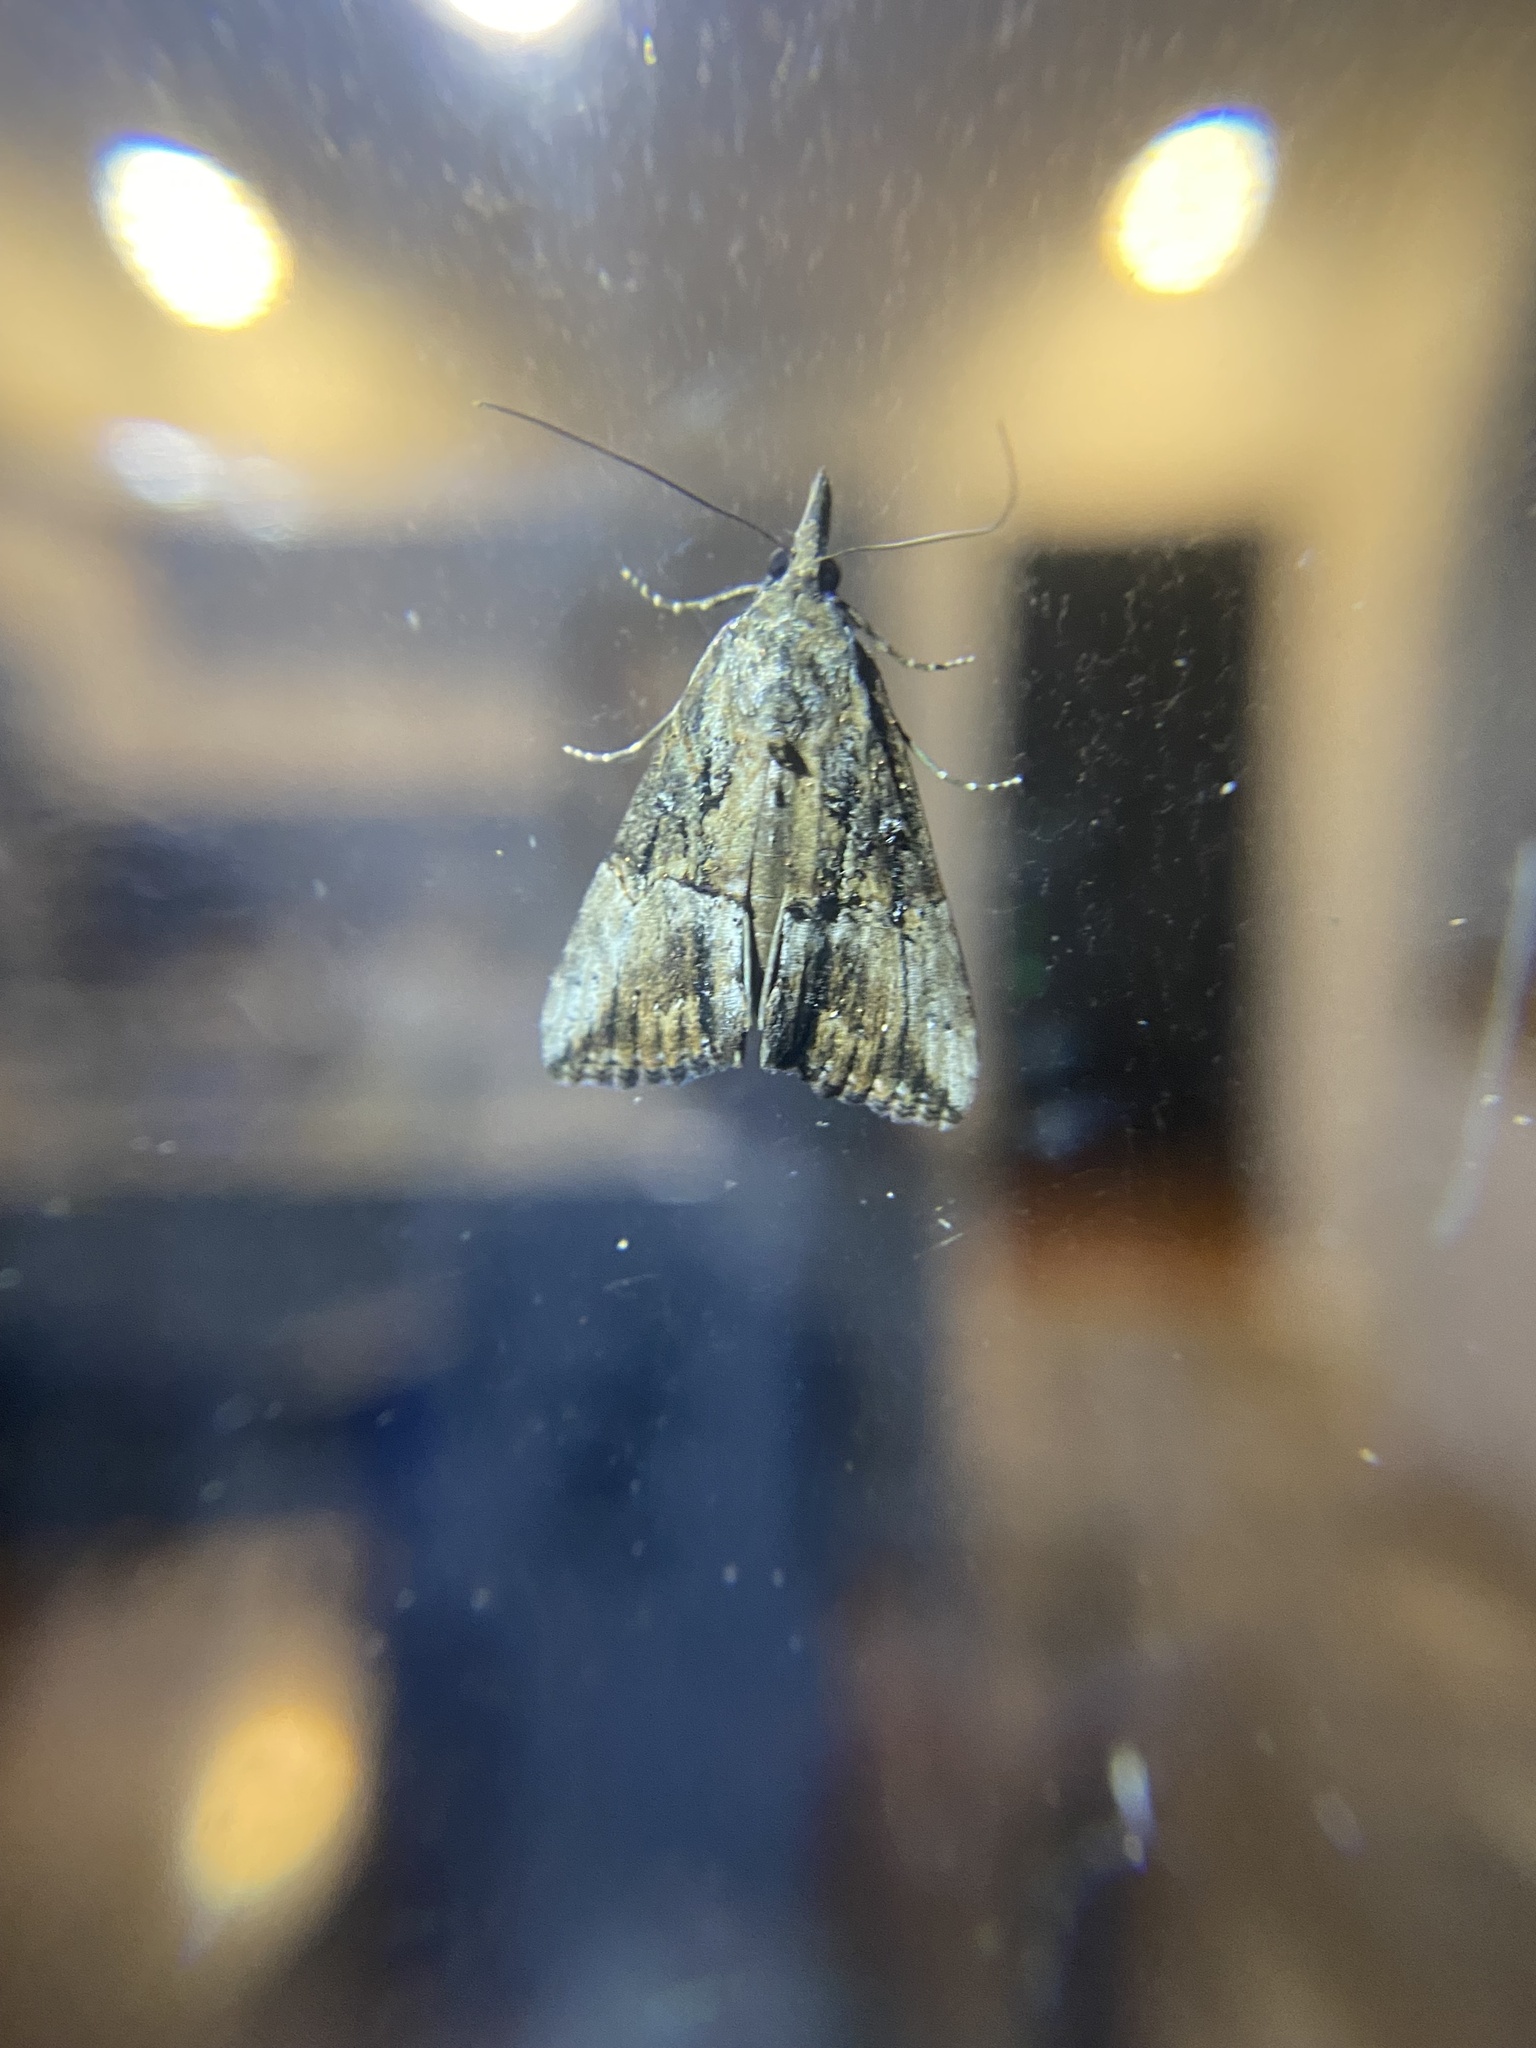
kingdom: Animalia
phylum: Arthropoda
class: Insecta
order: Lepidoptera
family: Erebidae
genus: Hypena
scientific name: Hypena scabra
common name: Green cloverworm
